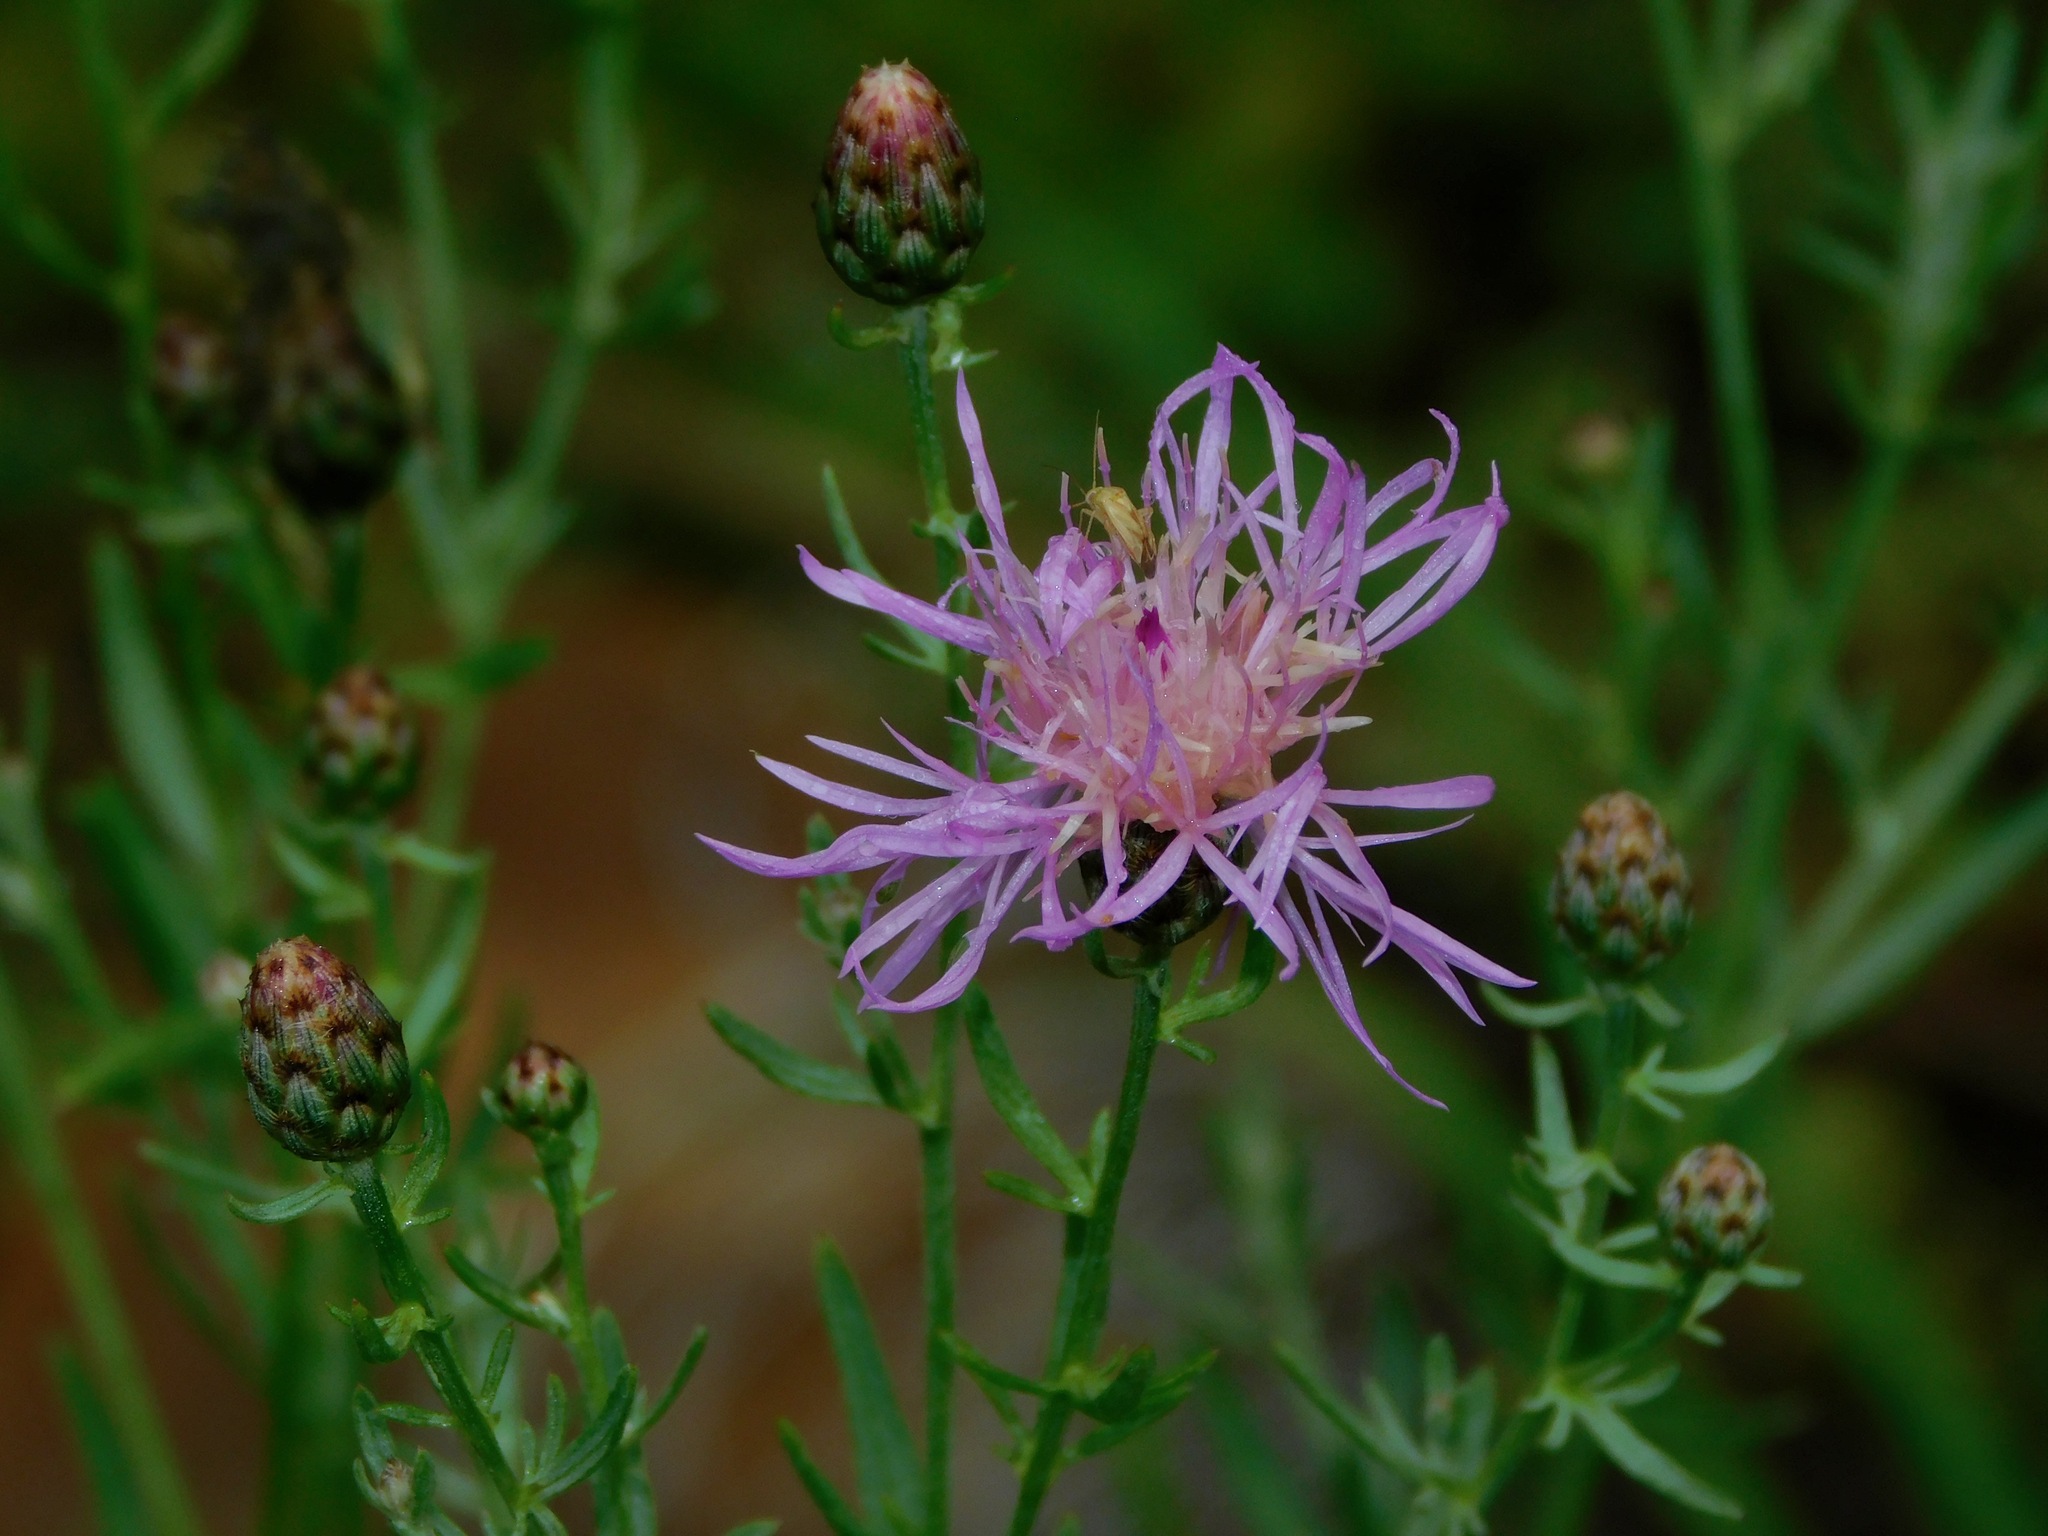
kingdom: Plantae
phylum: Tracheophyta
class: Magnoliopsida
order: Asterales
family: Asteraceae
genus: Centaurea
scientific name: Centaurea australis
